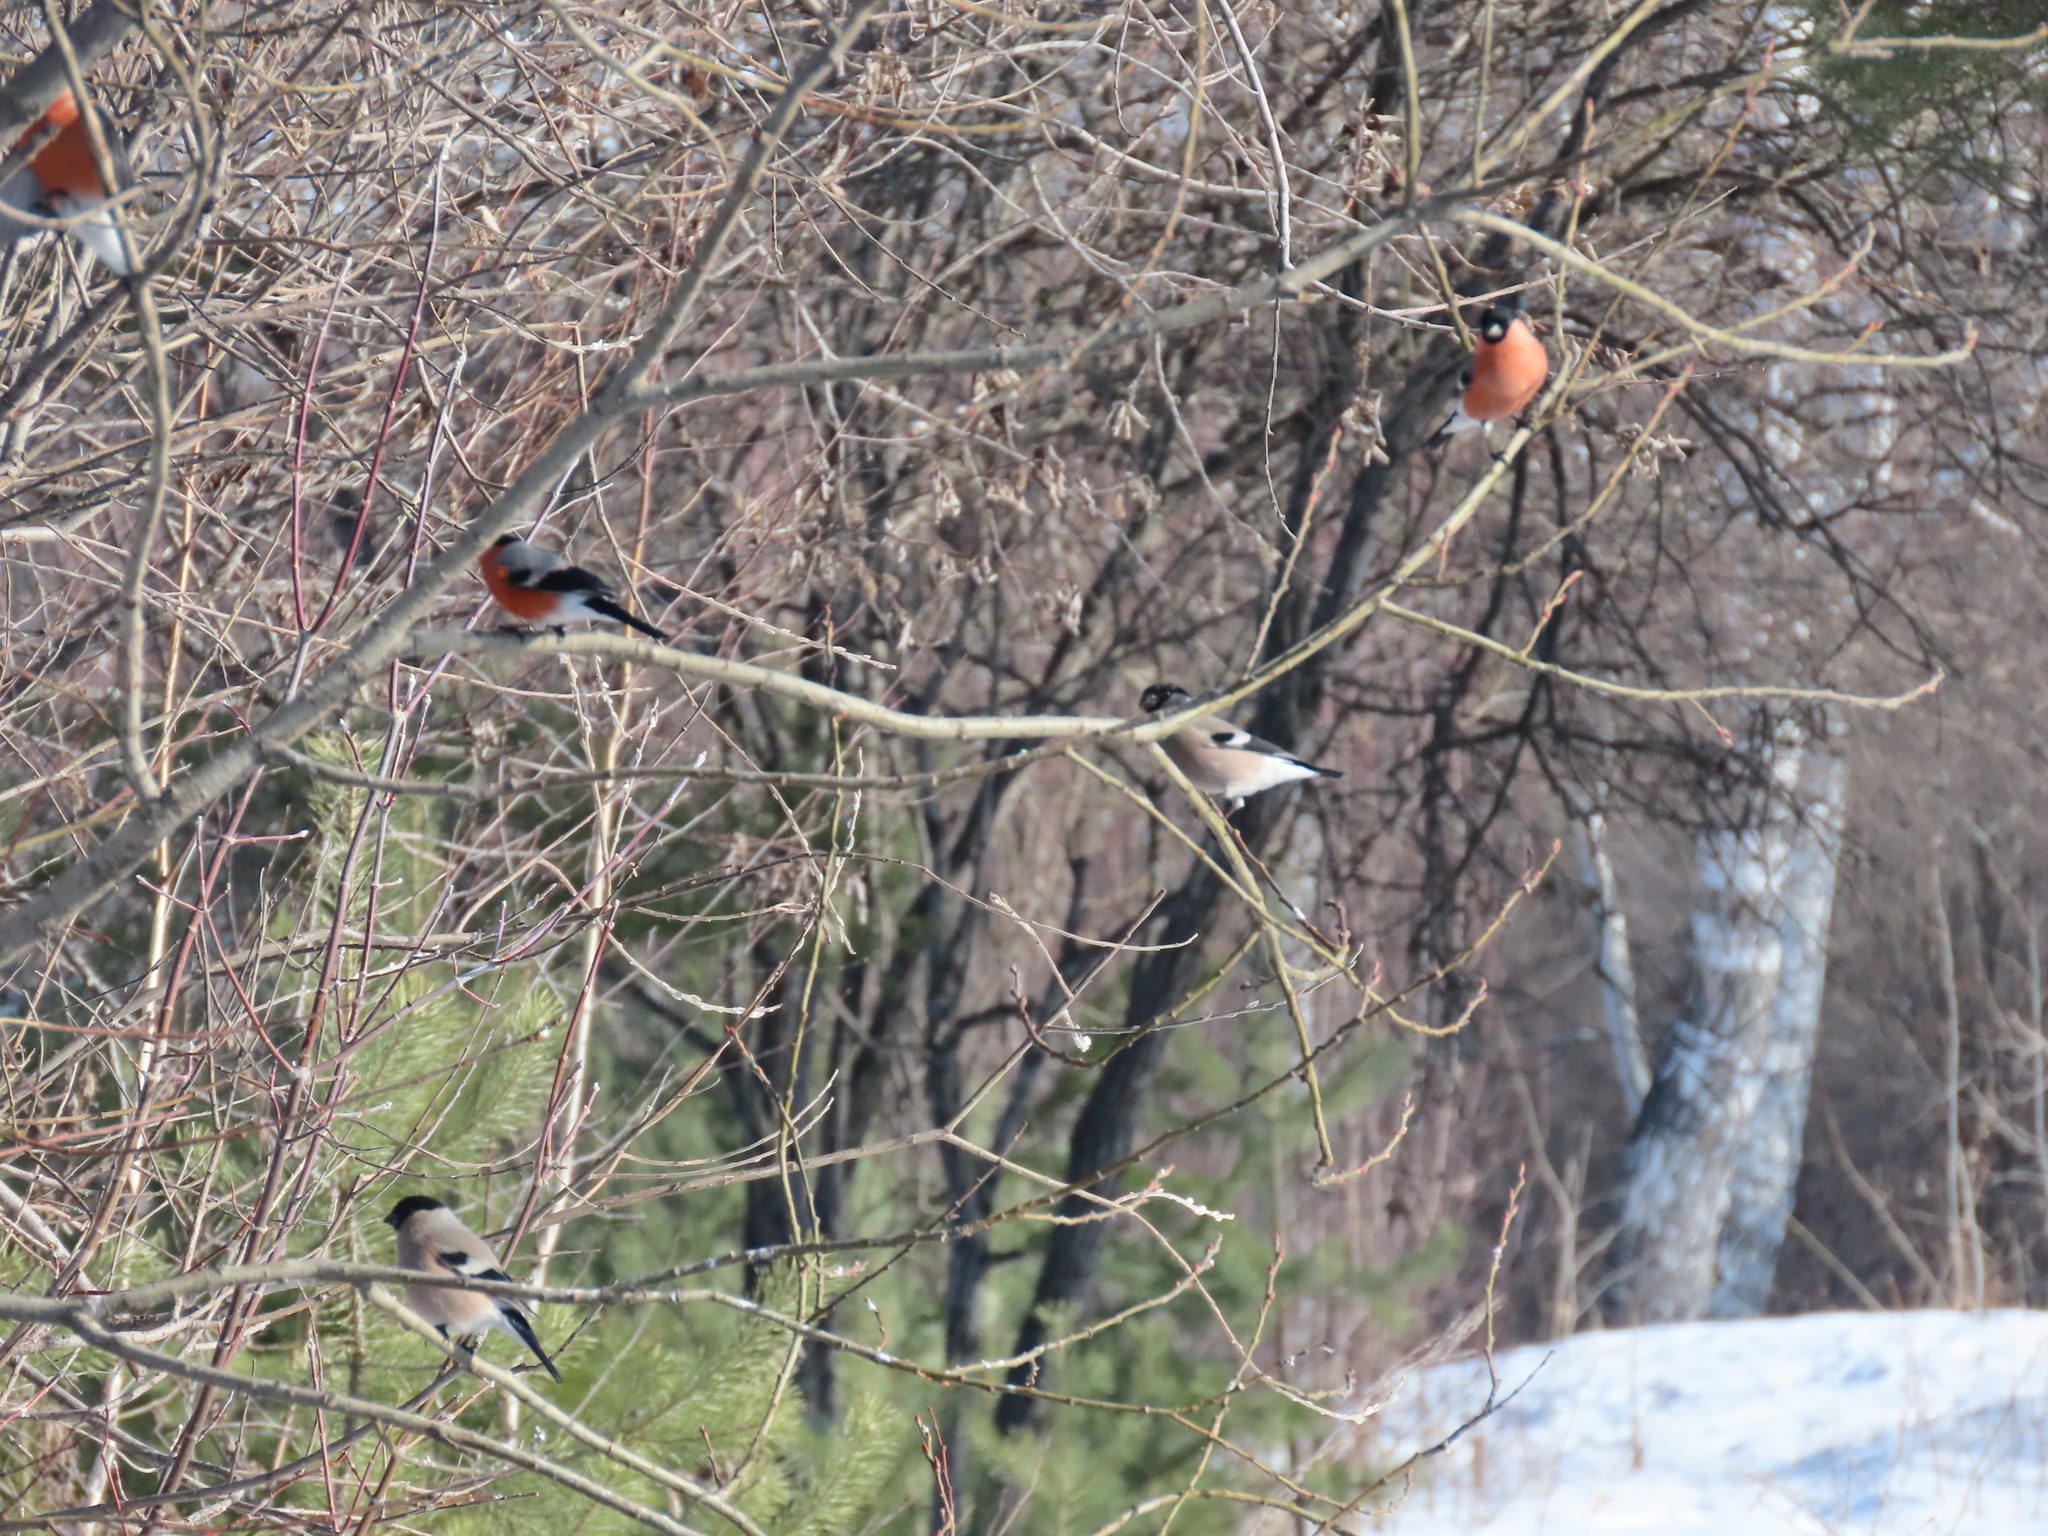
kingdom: Animalia
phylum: Chordata
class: Aves
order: Passeriformes
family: Fringillidae
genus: Pyrrhula
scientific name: Pyrrhula pyrrhula
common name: Eurasian bullfinch
